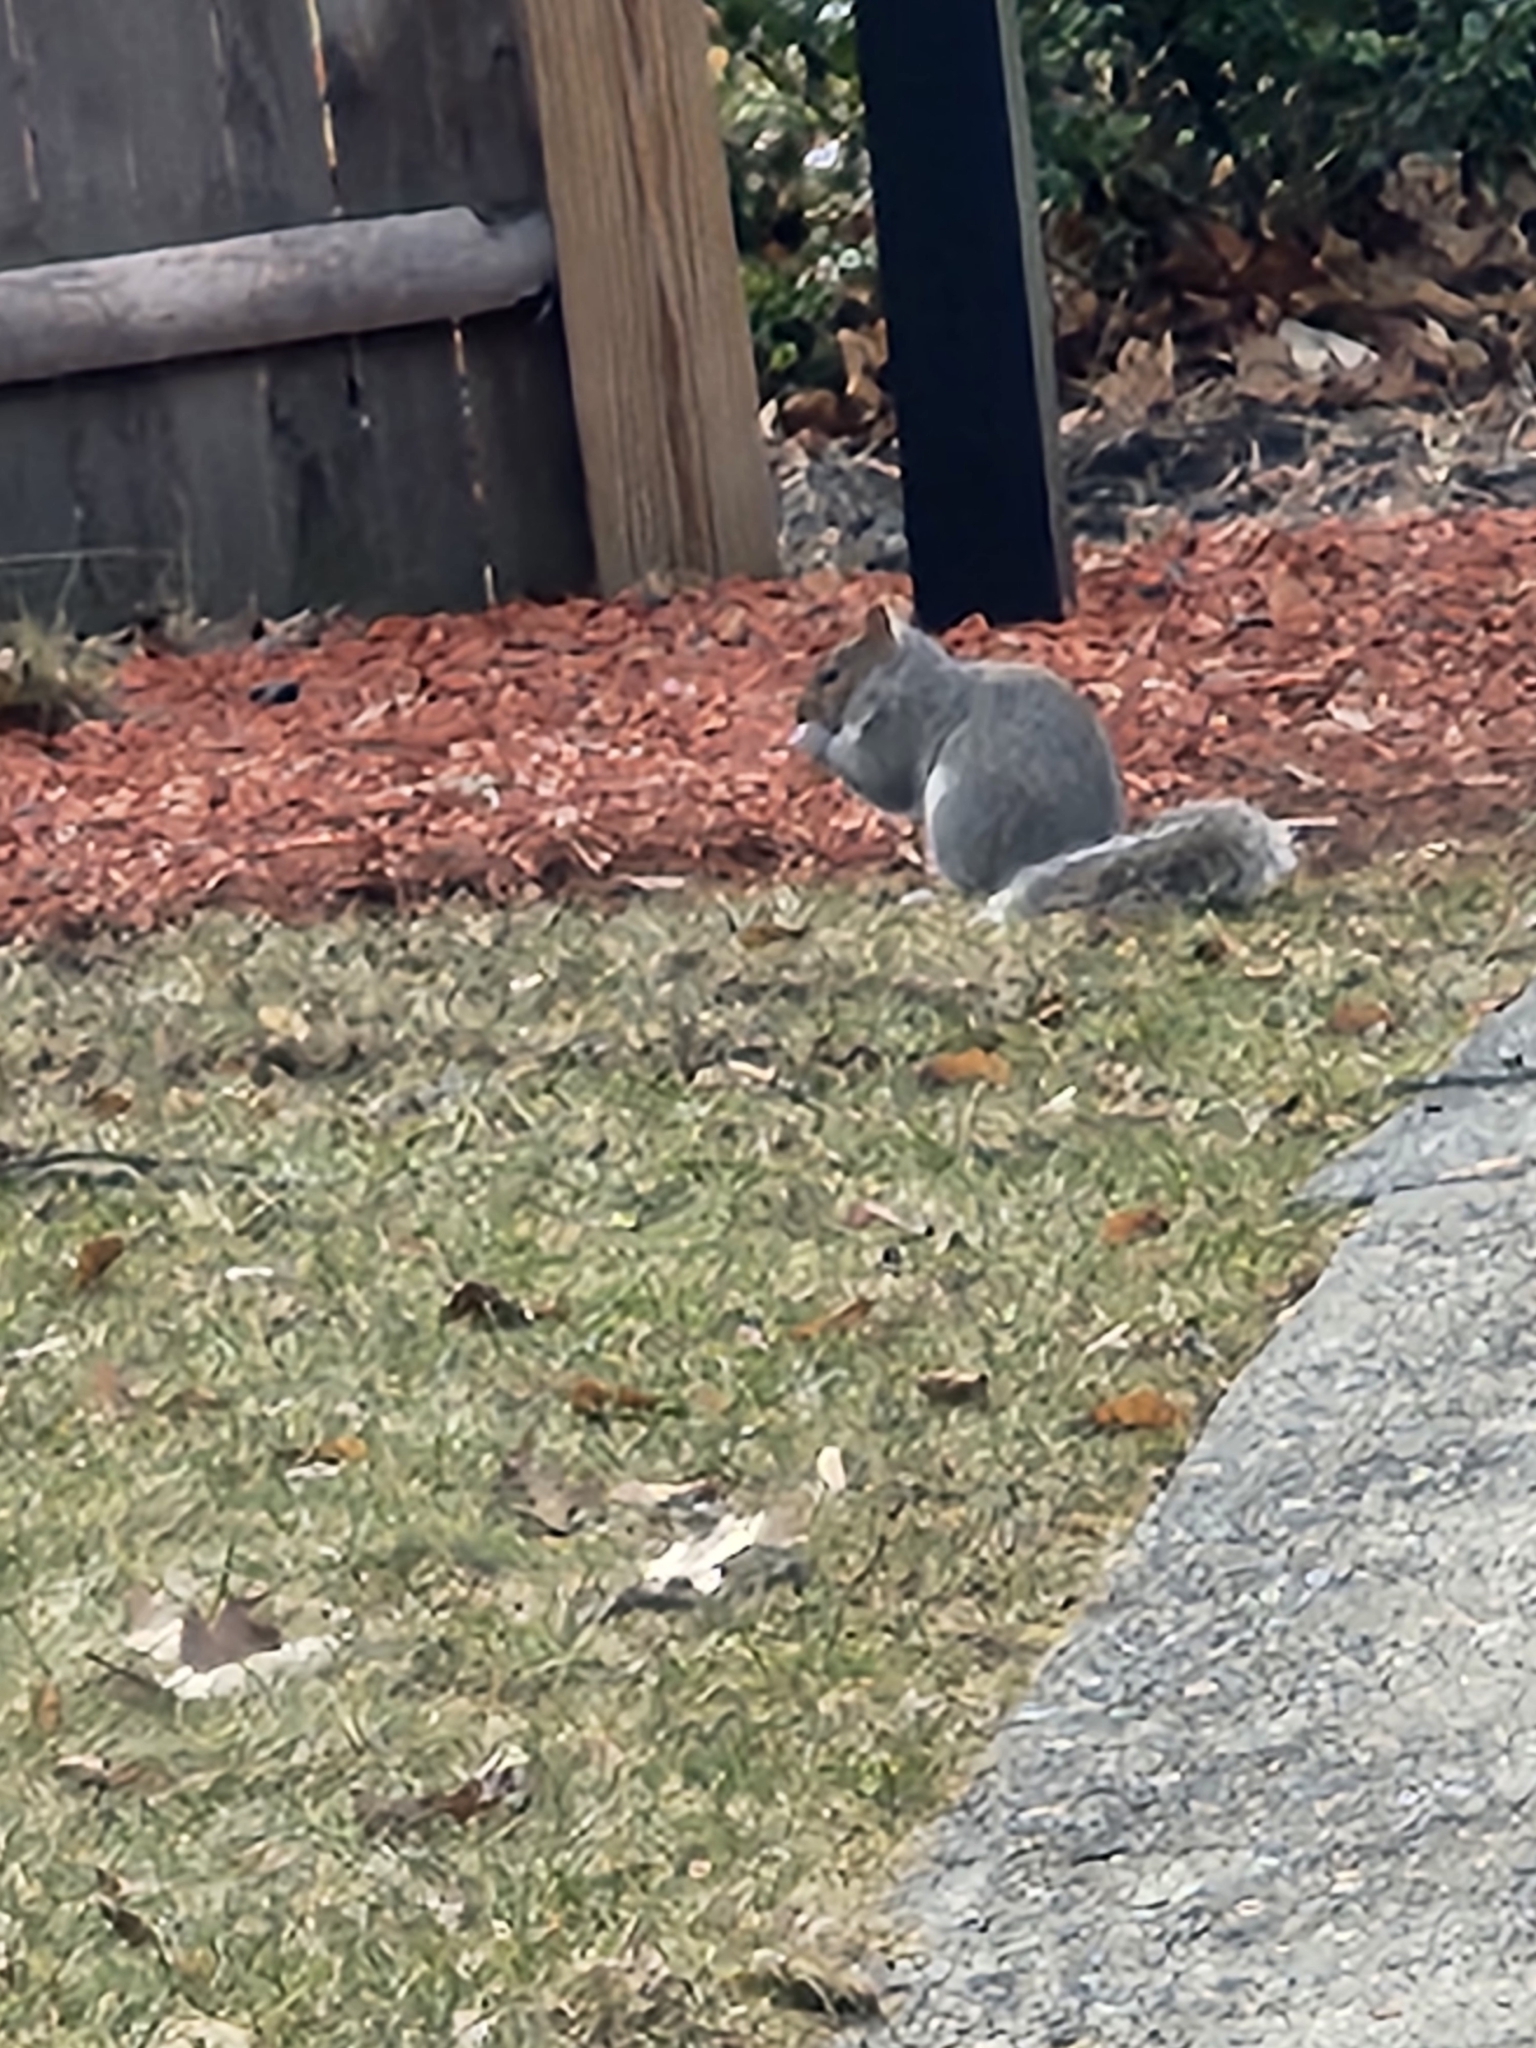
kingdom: Animalia
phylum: Chordata
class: Mammalia
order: Rodentia
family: Sciuridae
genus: Sciurus
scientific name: Sciurus carolinensis
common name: Eastern gray squirrel
